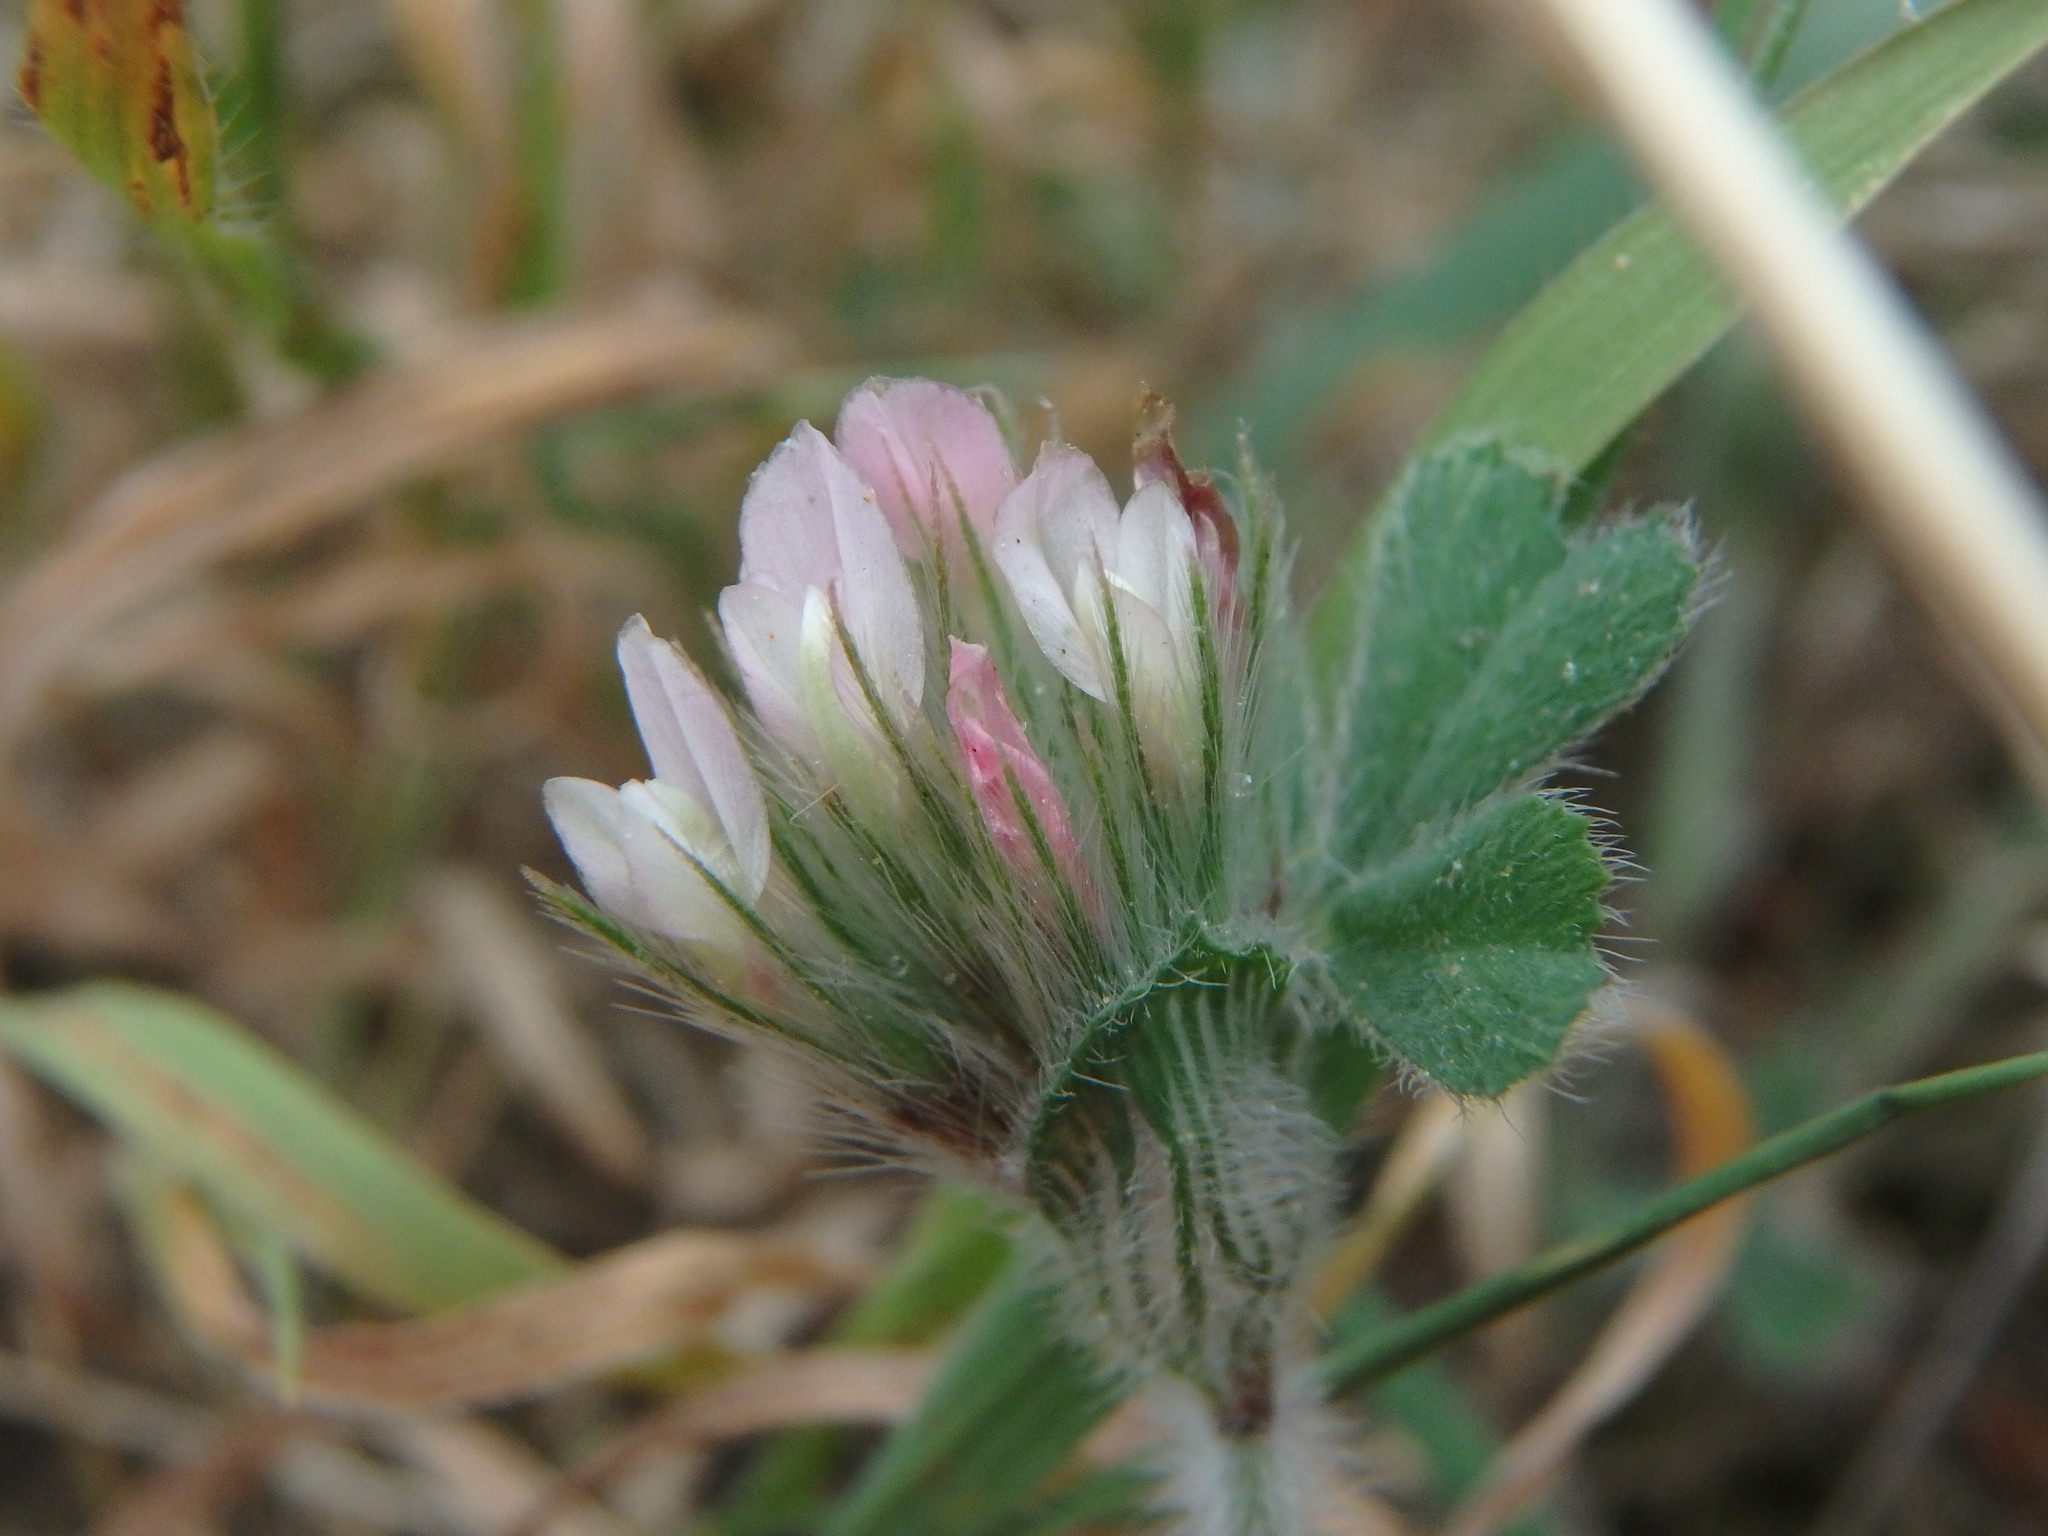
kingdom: Plantae
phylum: Tracheophyta
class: Magnoliopsida
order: Fabales
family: Fabaceae
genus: Trifolium
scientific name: Trifolium stellatum
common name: Starry clover
